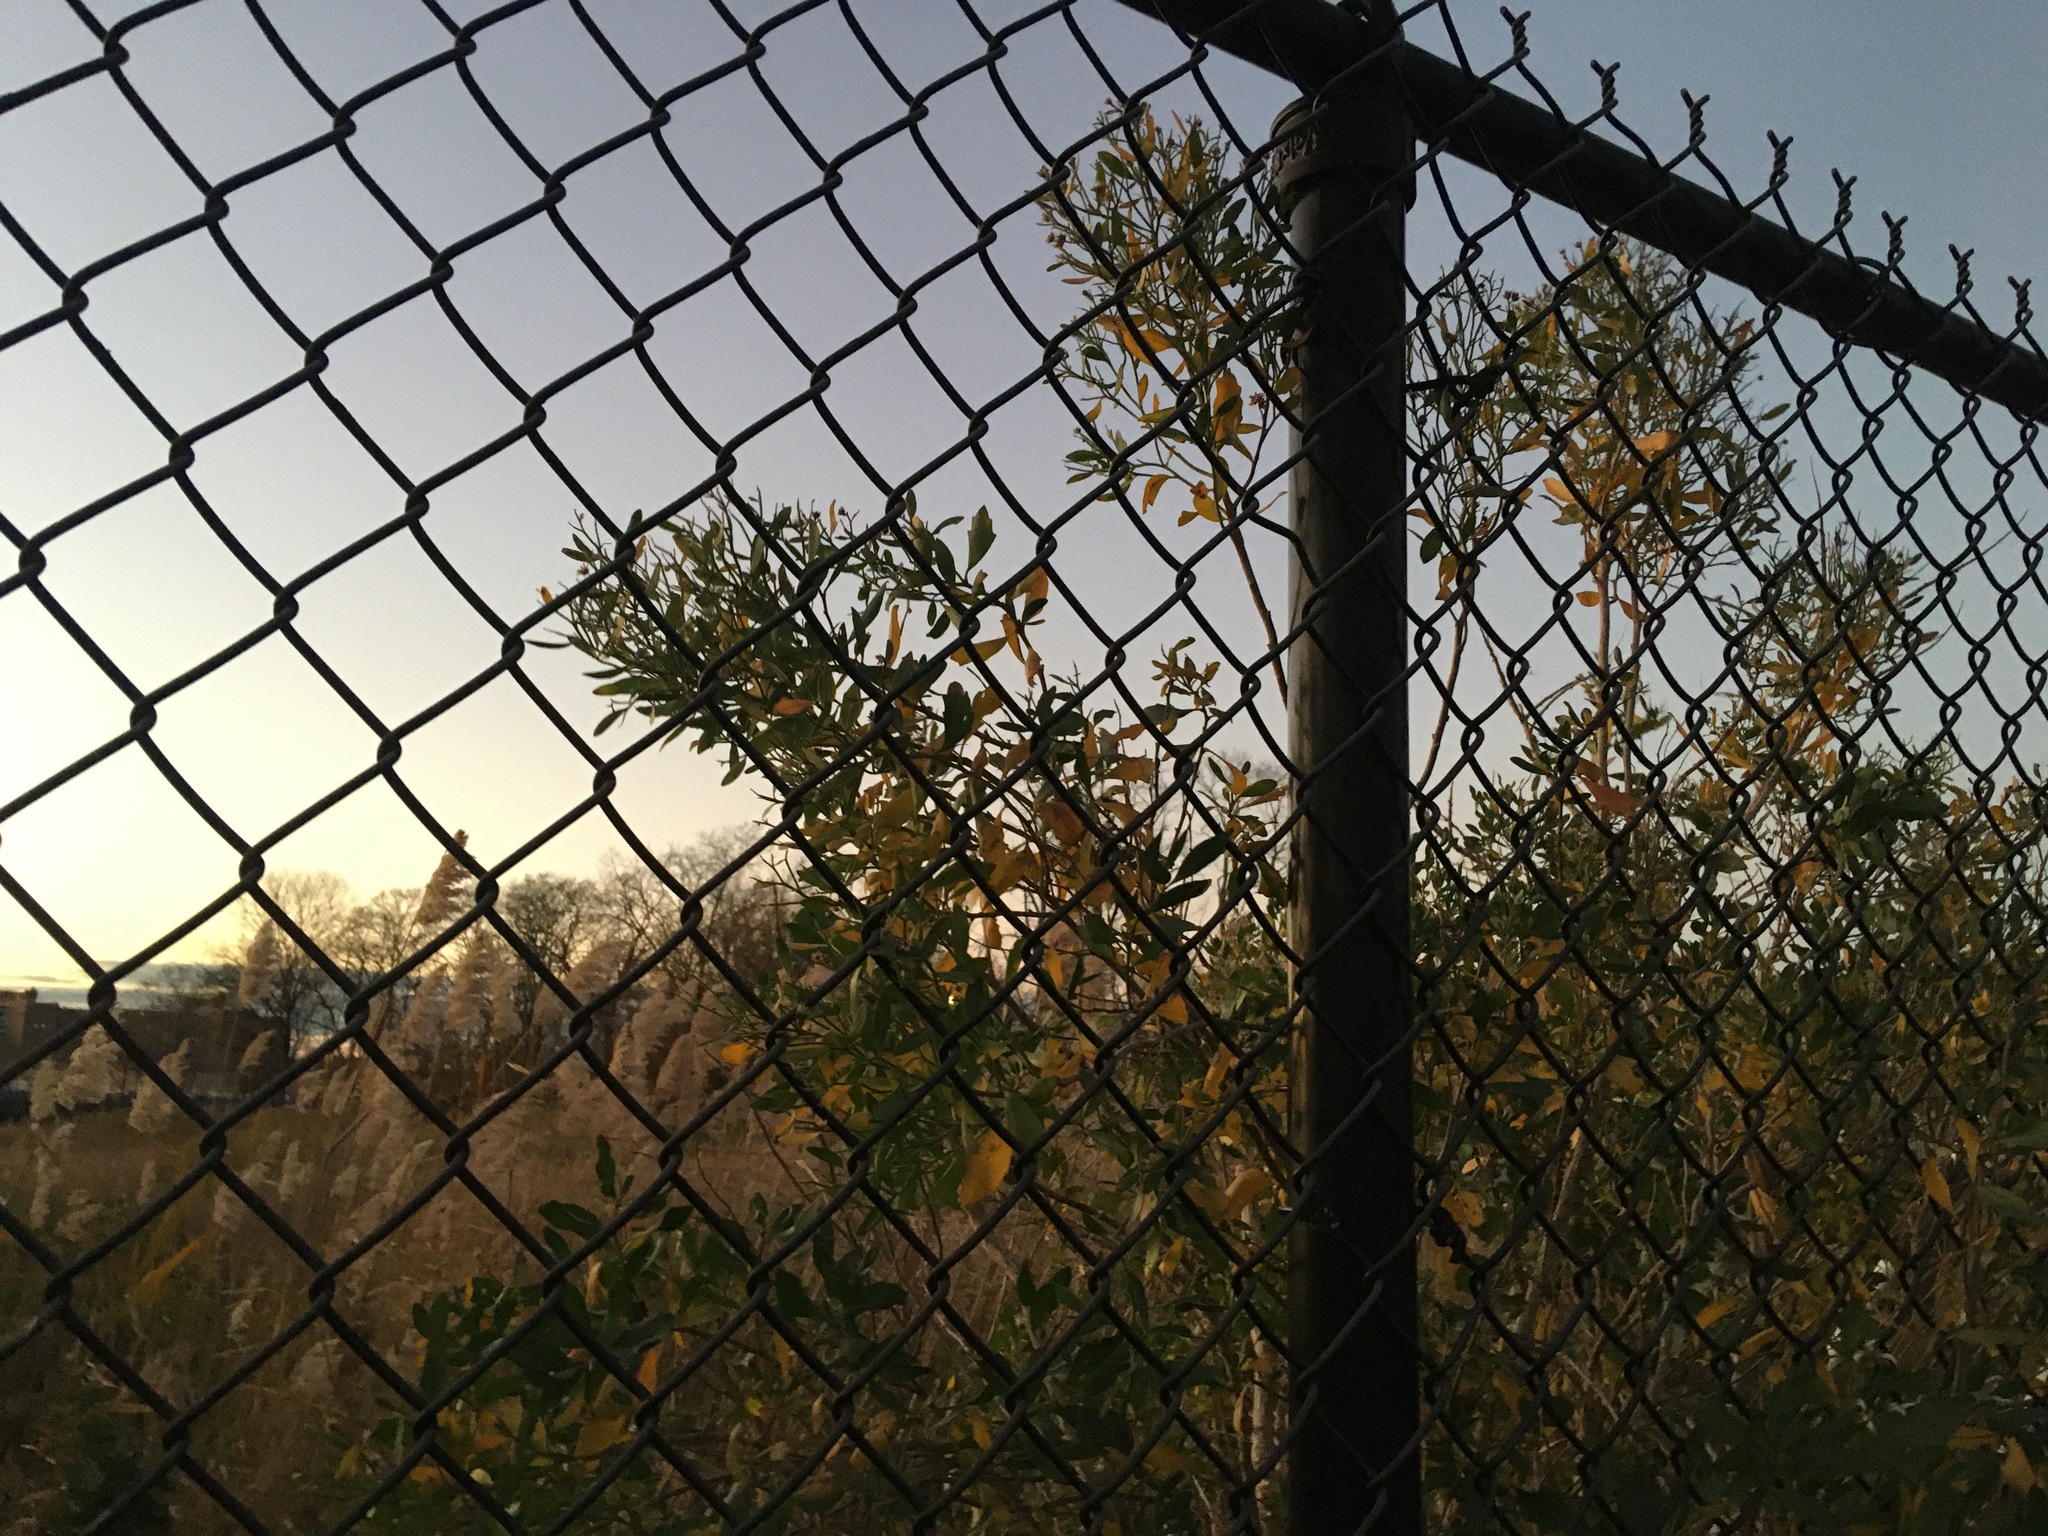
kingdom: Plantae
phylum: Tracheophyta
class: Magnoliopsida
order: Asterales
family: Asteraceae
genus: Baccharis
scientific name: Baccharis halimifolia
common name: Eastern baccharis
